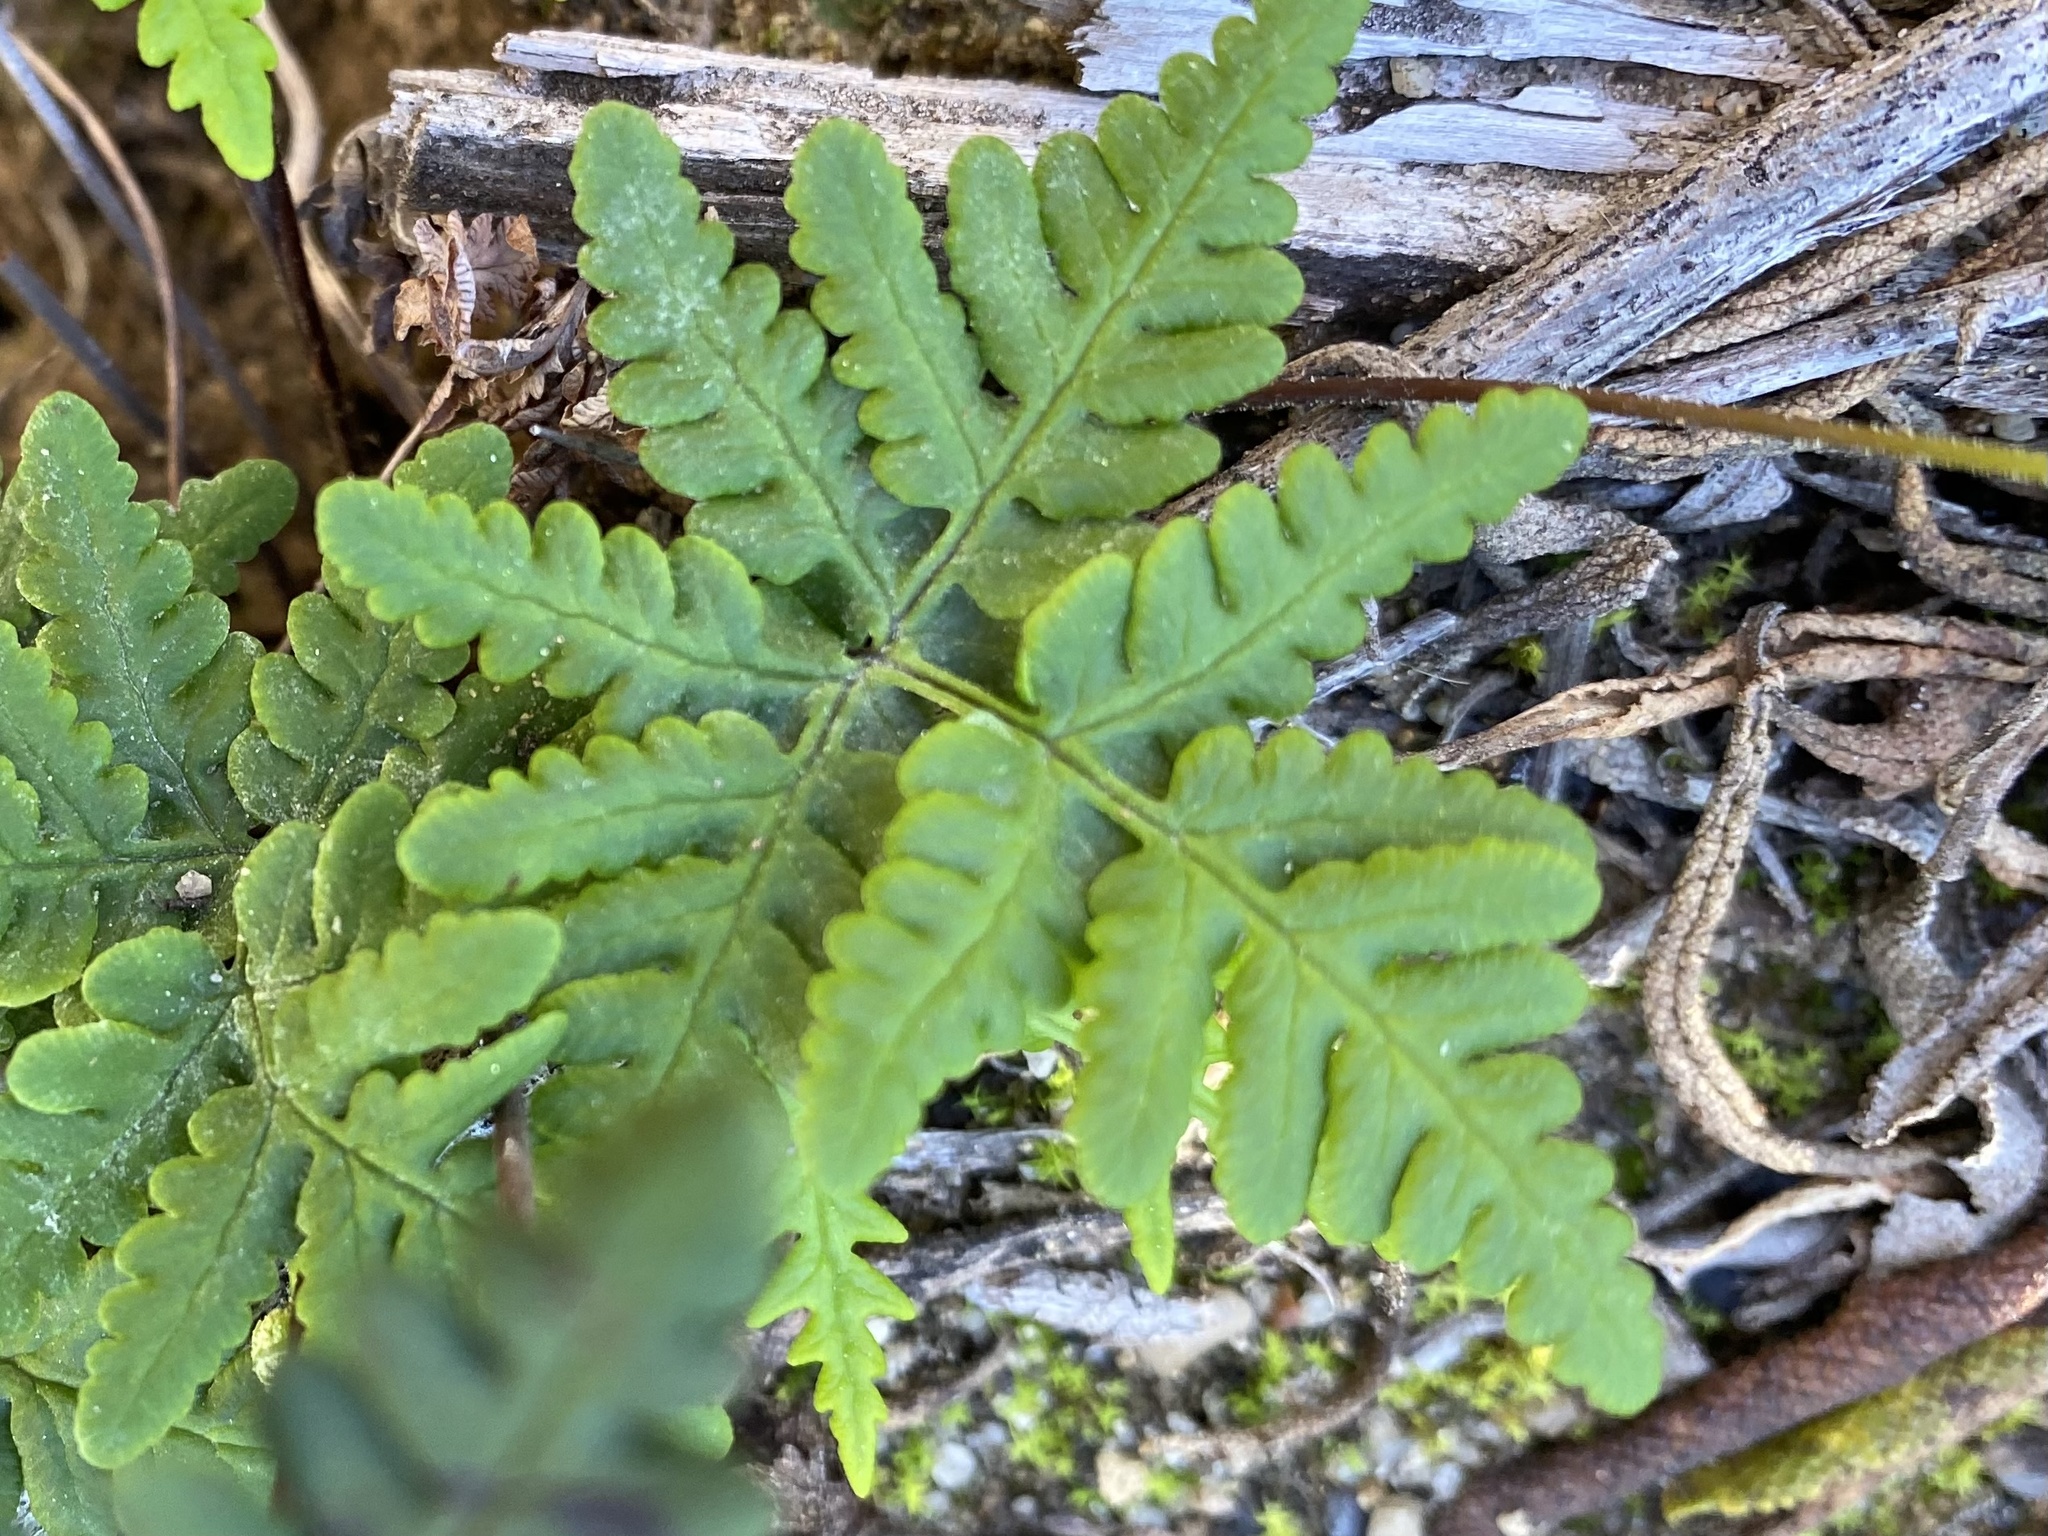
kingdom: Plantae
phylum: Tracheophyta
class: Polypodiopsida
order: Polypodiales
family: Pteridaceae
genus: Pentagramma
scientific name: Pentagramma triangularis
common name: Gold fern
